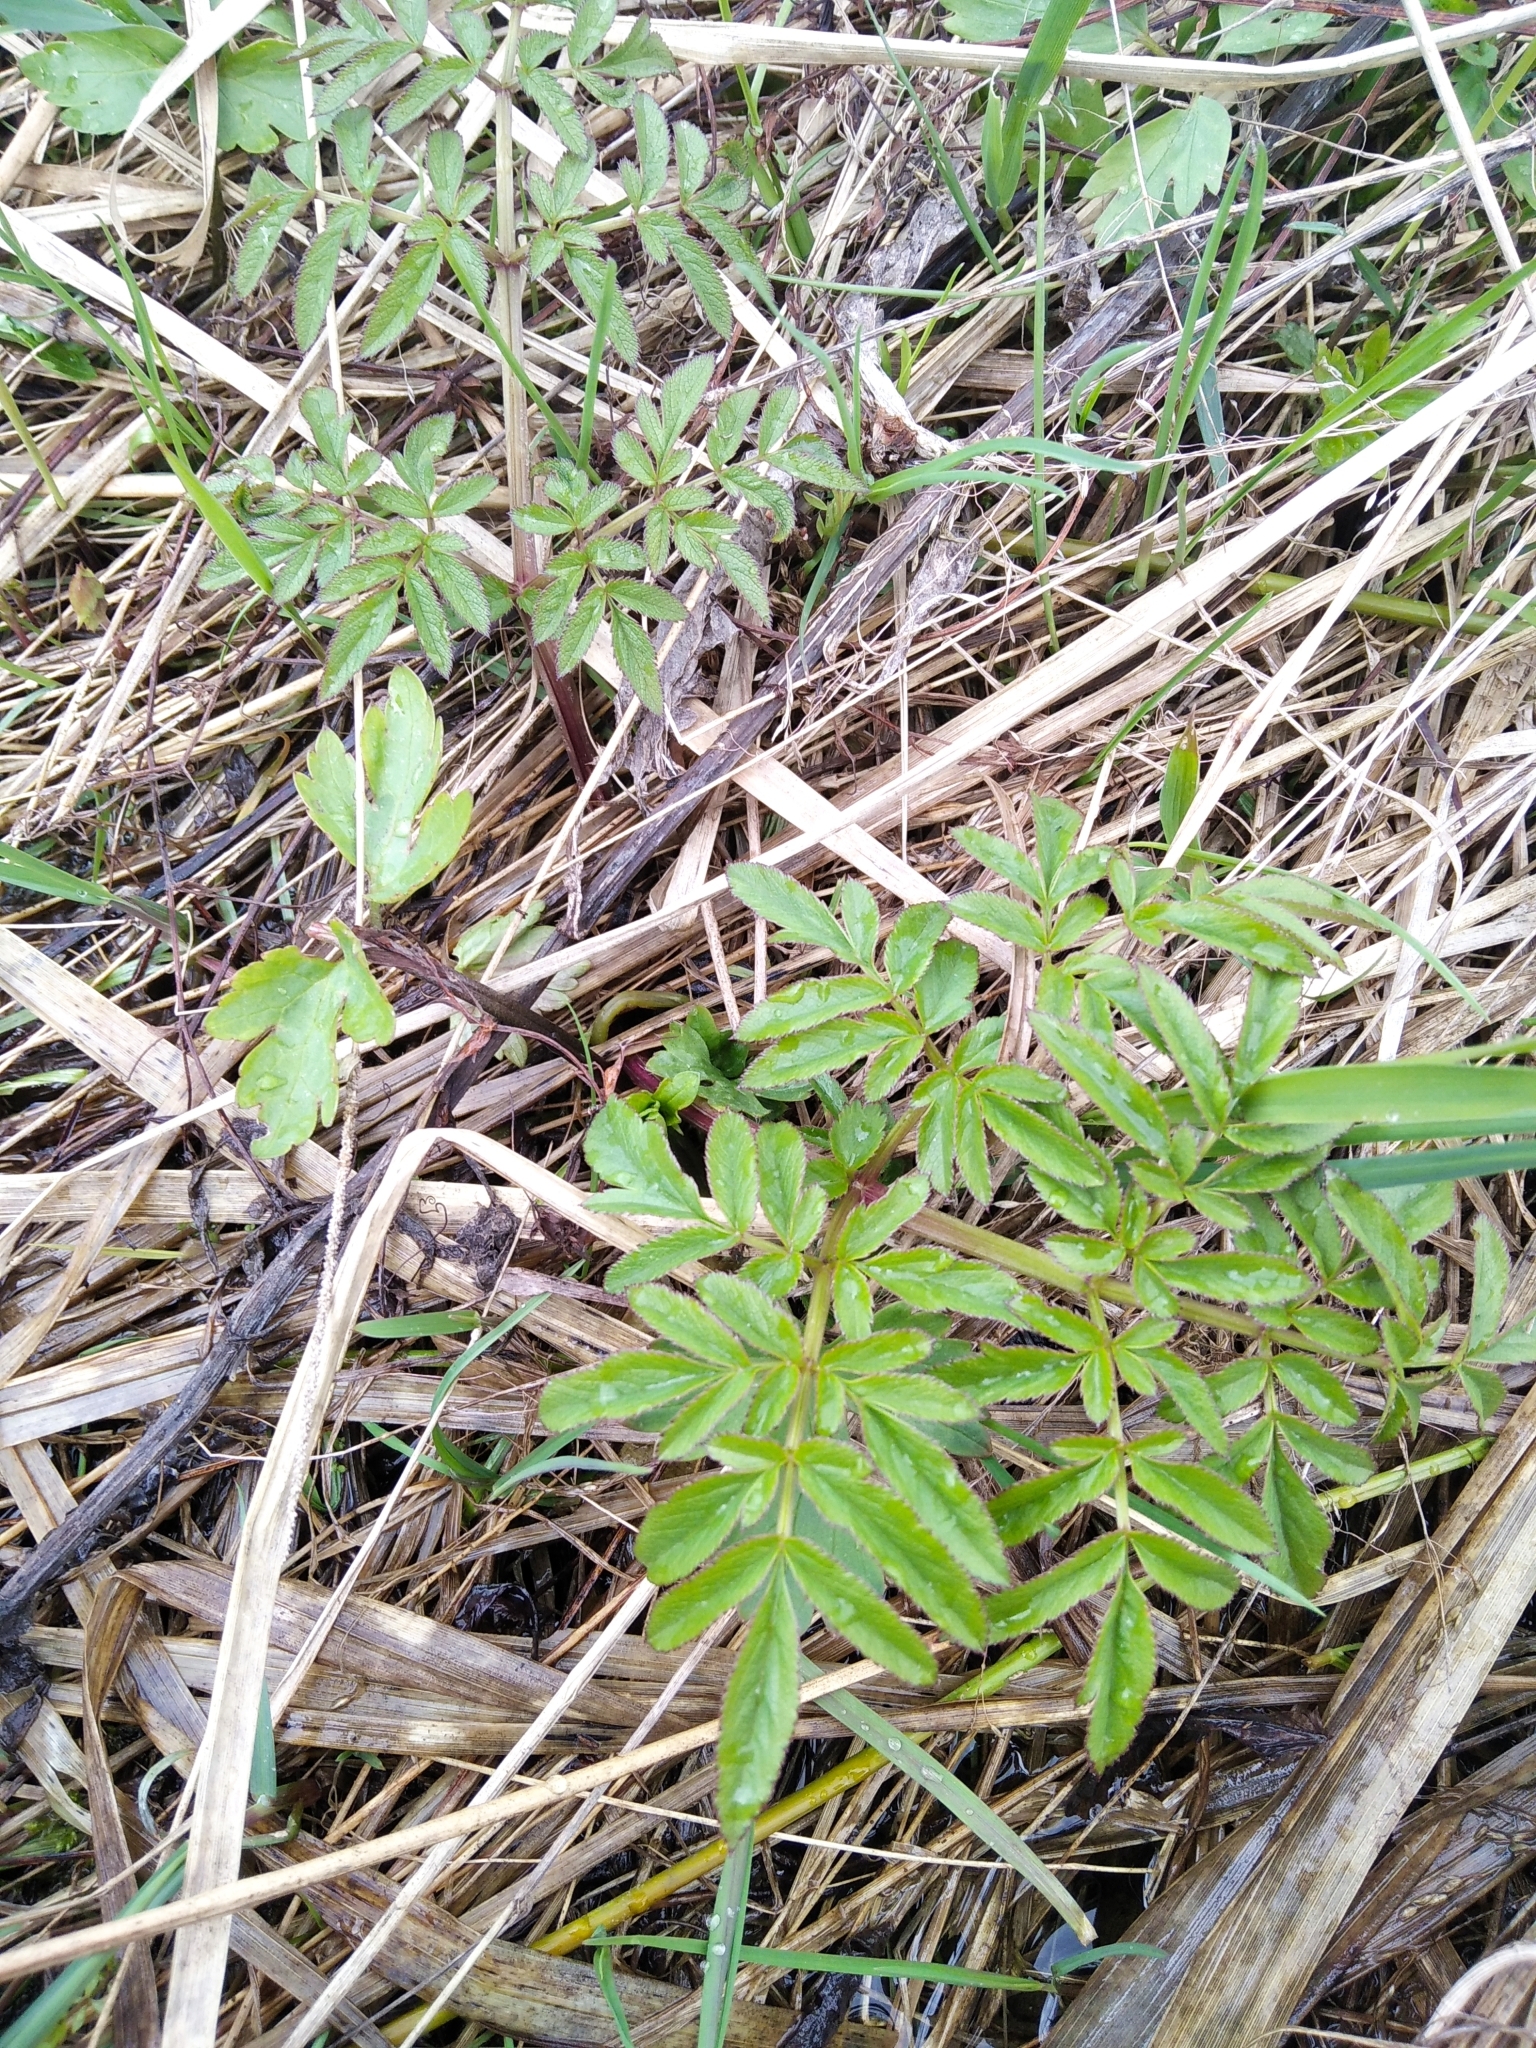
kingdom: Plantae
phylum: Tracheophyta
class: Magnoliopsida
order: Apiales
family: Apiaceae
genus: Angelica
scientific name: Angelica sylvestris
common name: Wild angelica
